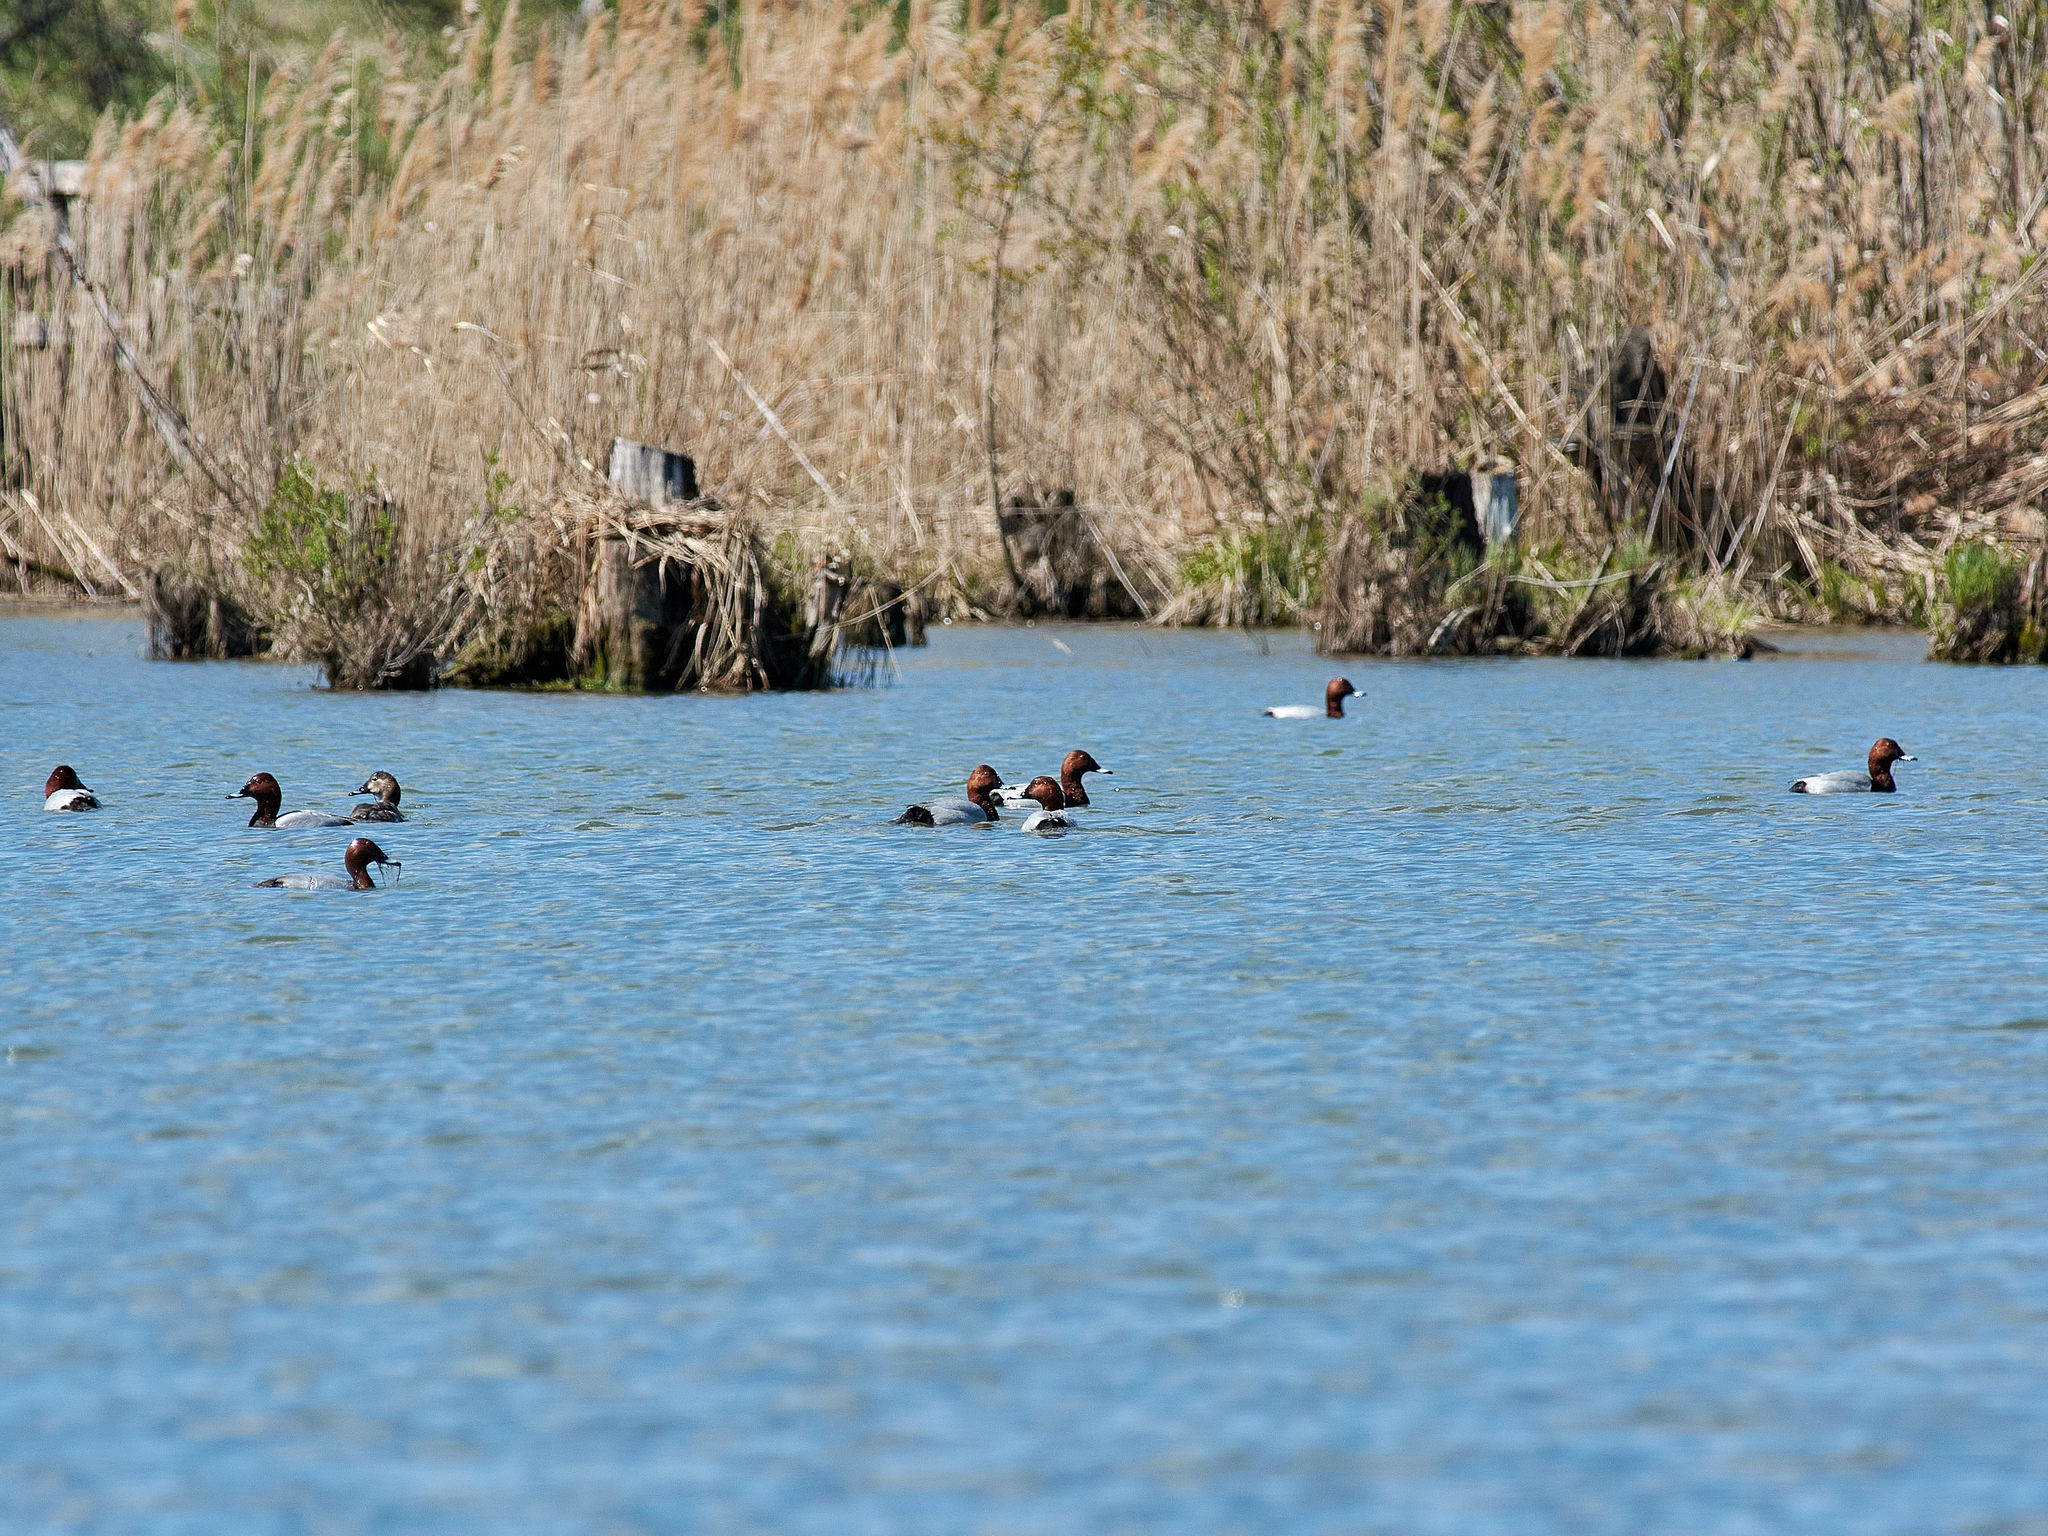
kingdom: Animalia
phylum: Chordata
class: Aves
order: Anseriformes
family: Anatidae
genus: Aythya
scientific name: Aythya ferina
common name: Common pochard
